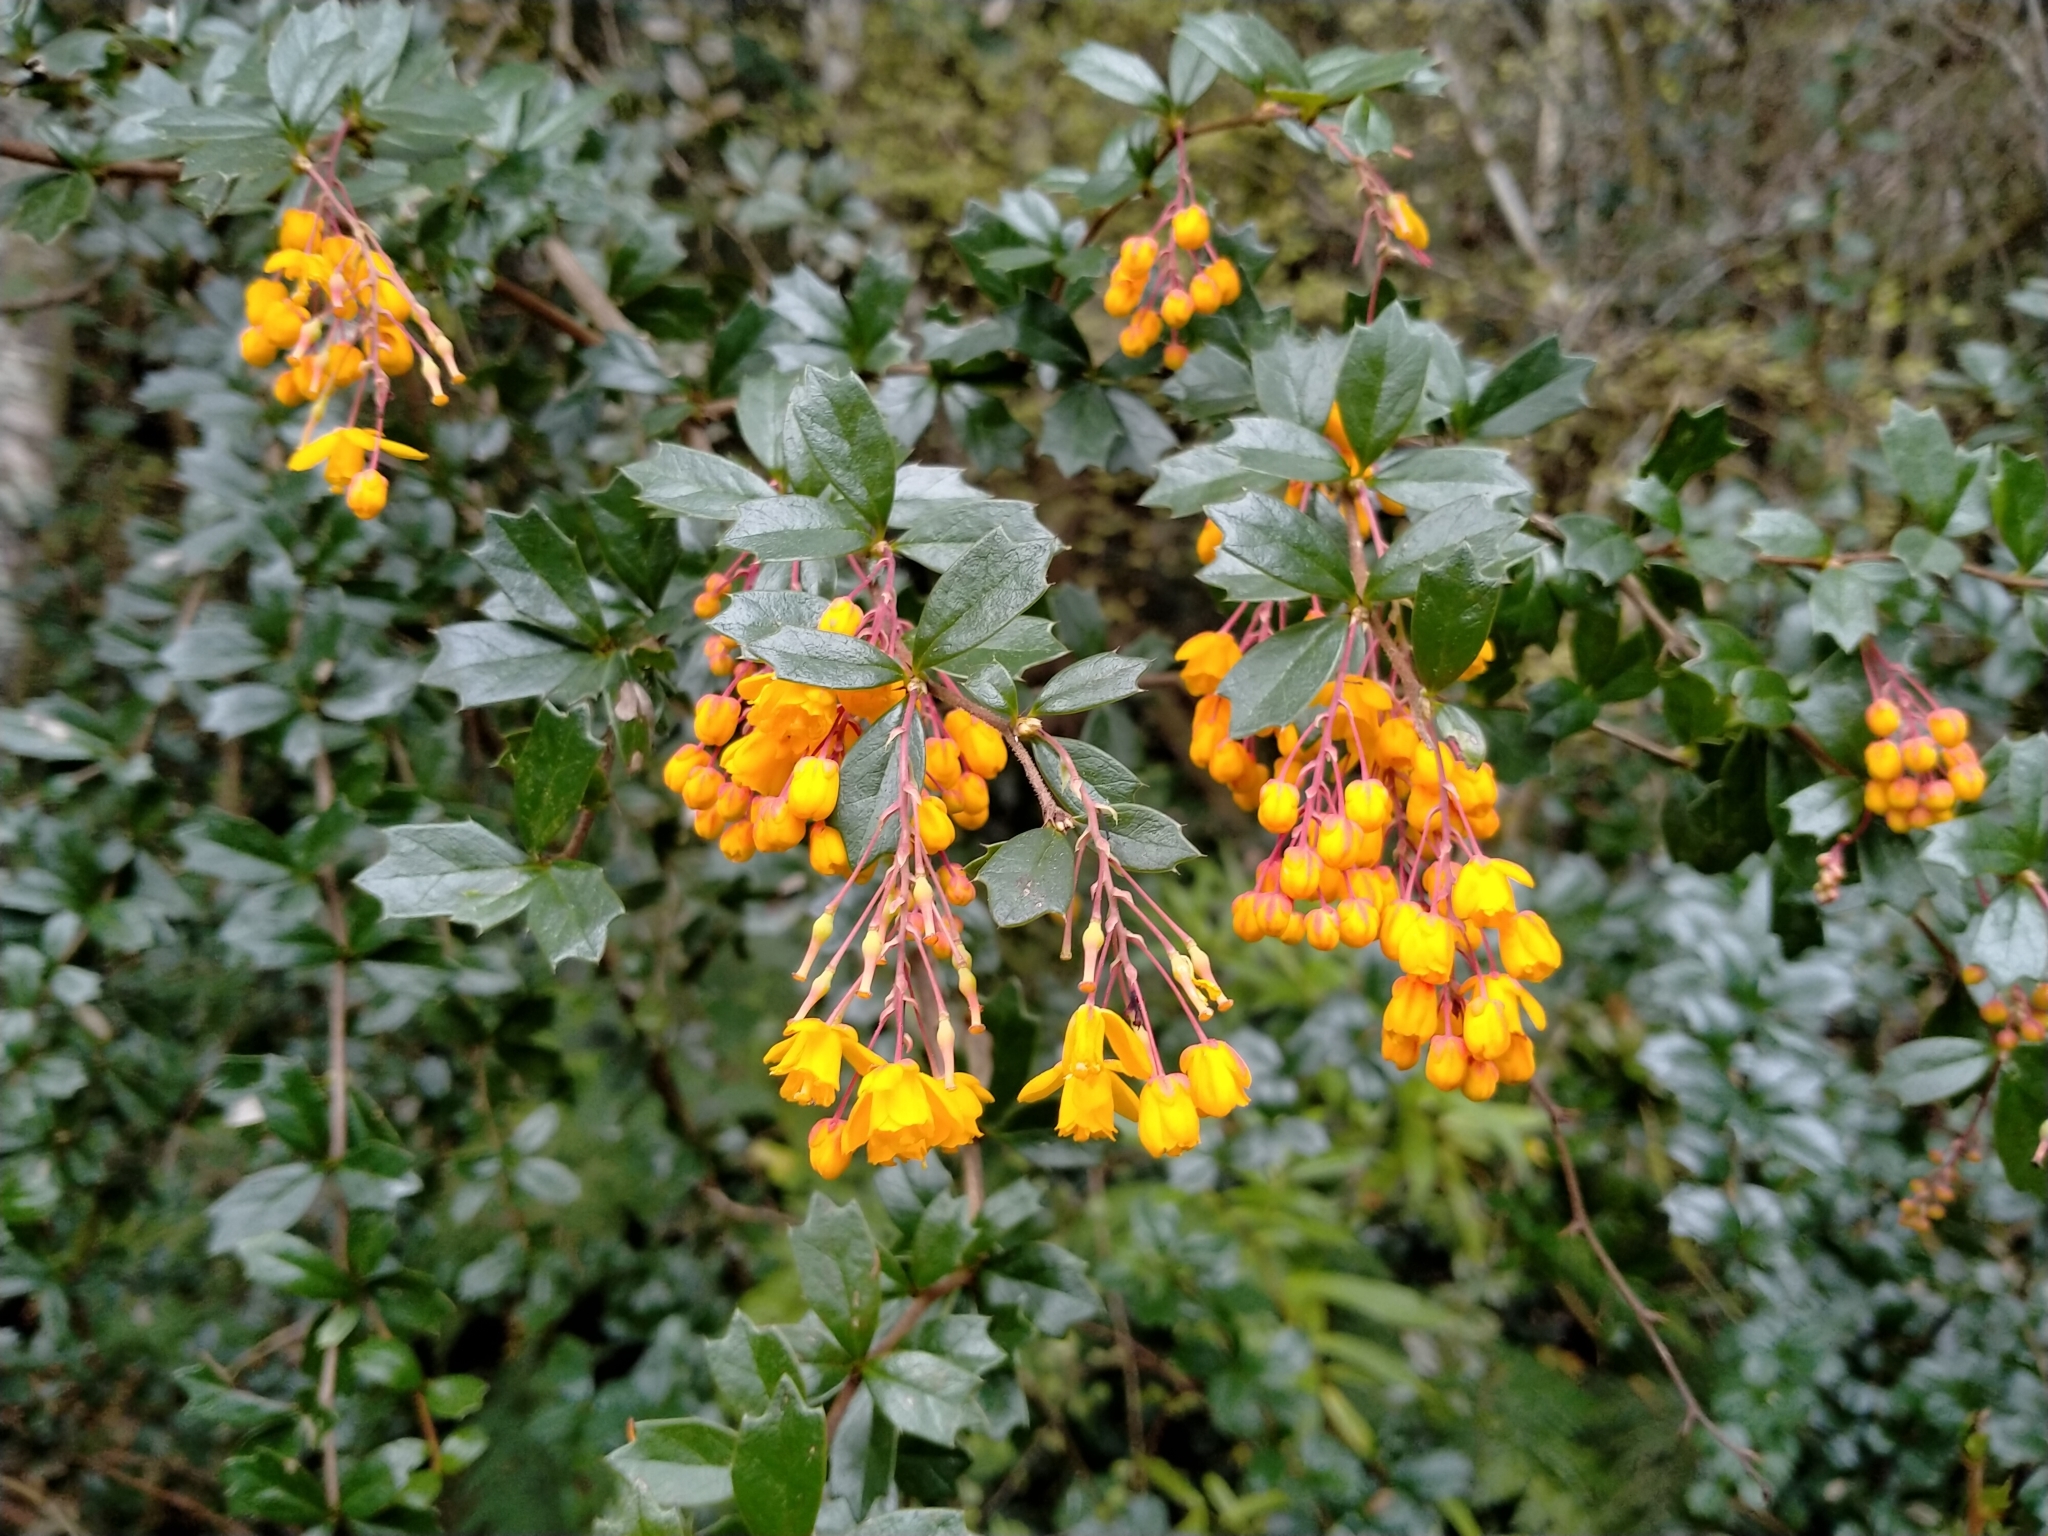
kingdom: Plantae
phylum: Tracheophyta
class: Magnoliopsida
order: Ranunculales
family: Berberidaceae
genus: Berberis
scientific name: Berberis darwinii
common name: Darwin's barberry
